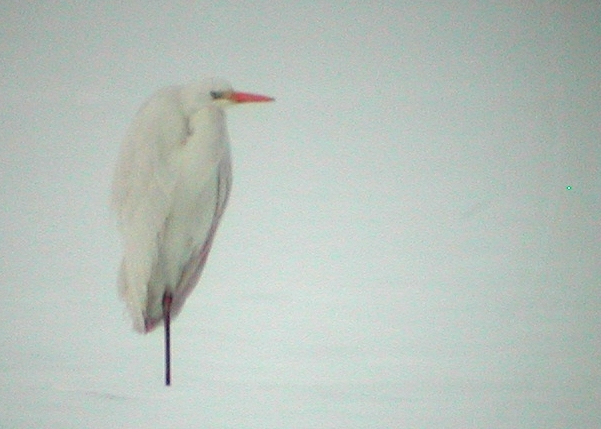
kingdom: Animalia
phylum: Chordata
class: Aves
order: Pelecaniformes
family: Ardeidae
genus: Ardea
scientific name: Ardea alba
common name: Great egret
